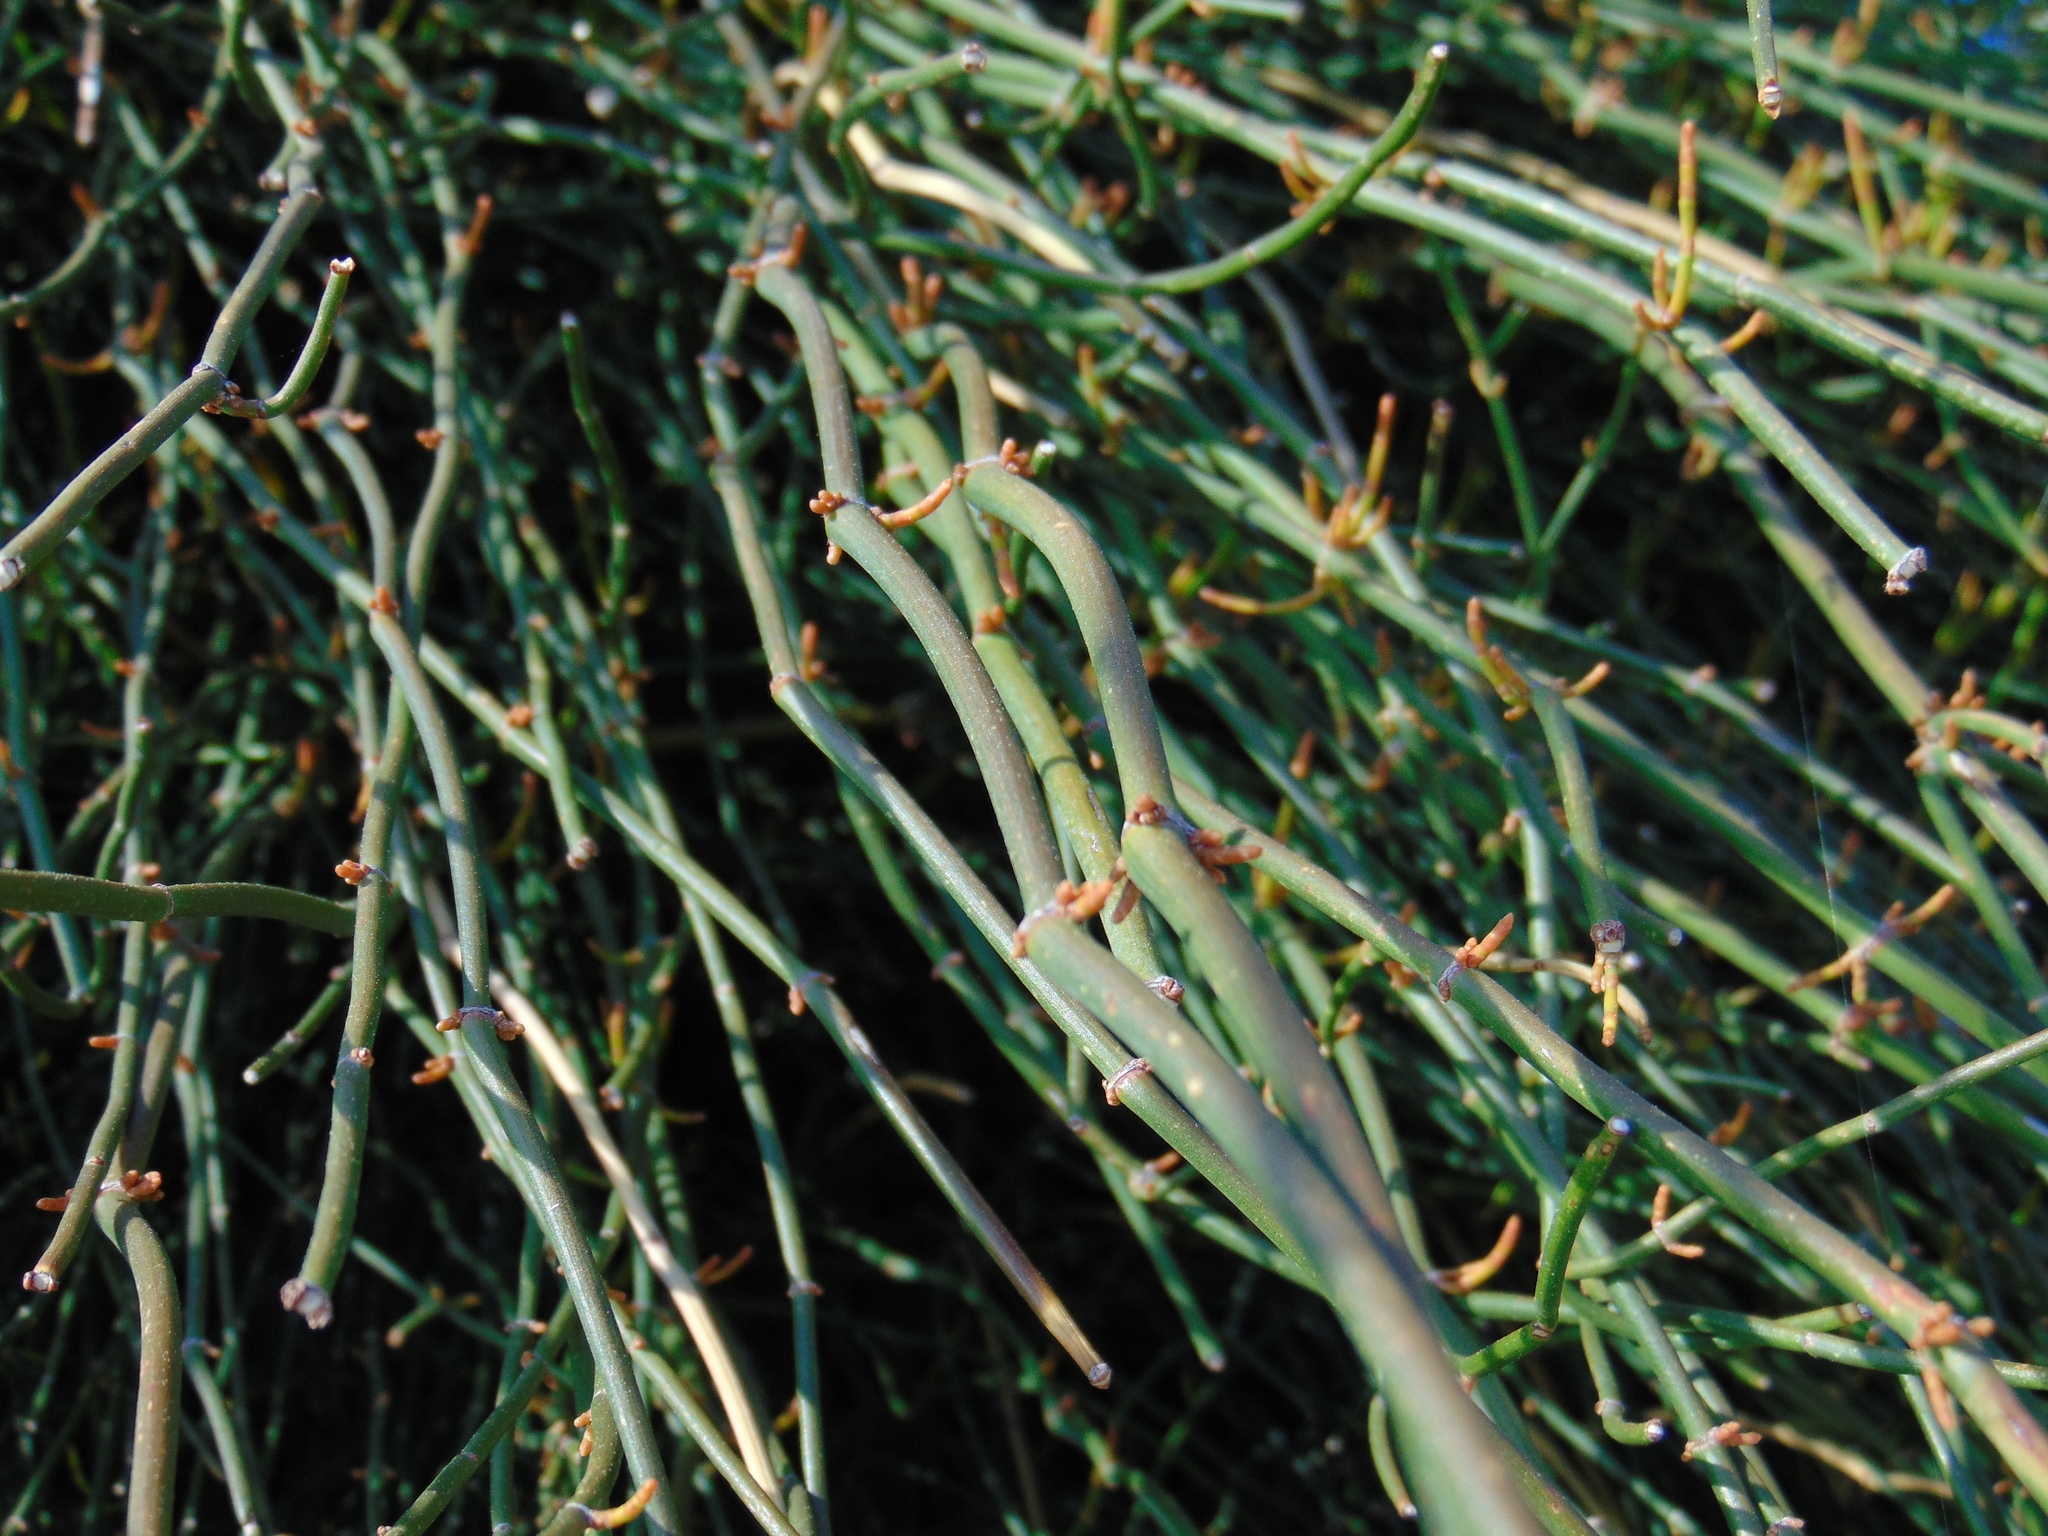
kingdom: Plantae
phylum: Tracheophyta
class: Gnetopsida
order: Ephedrales
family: Ephedraceae
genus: Ephedra
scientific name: Ephedra foeminea
